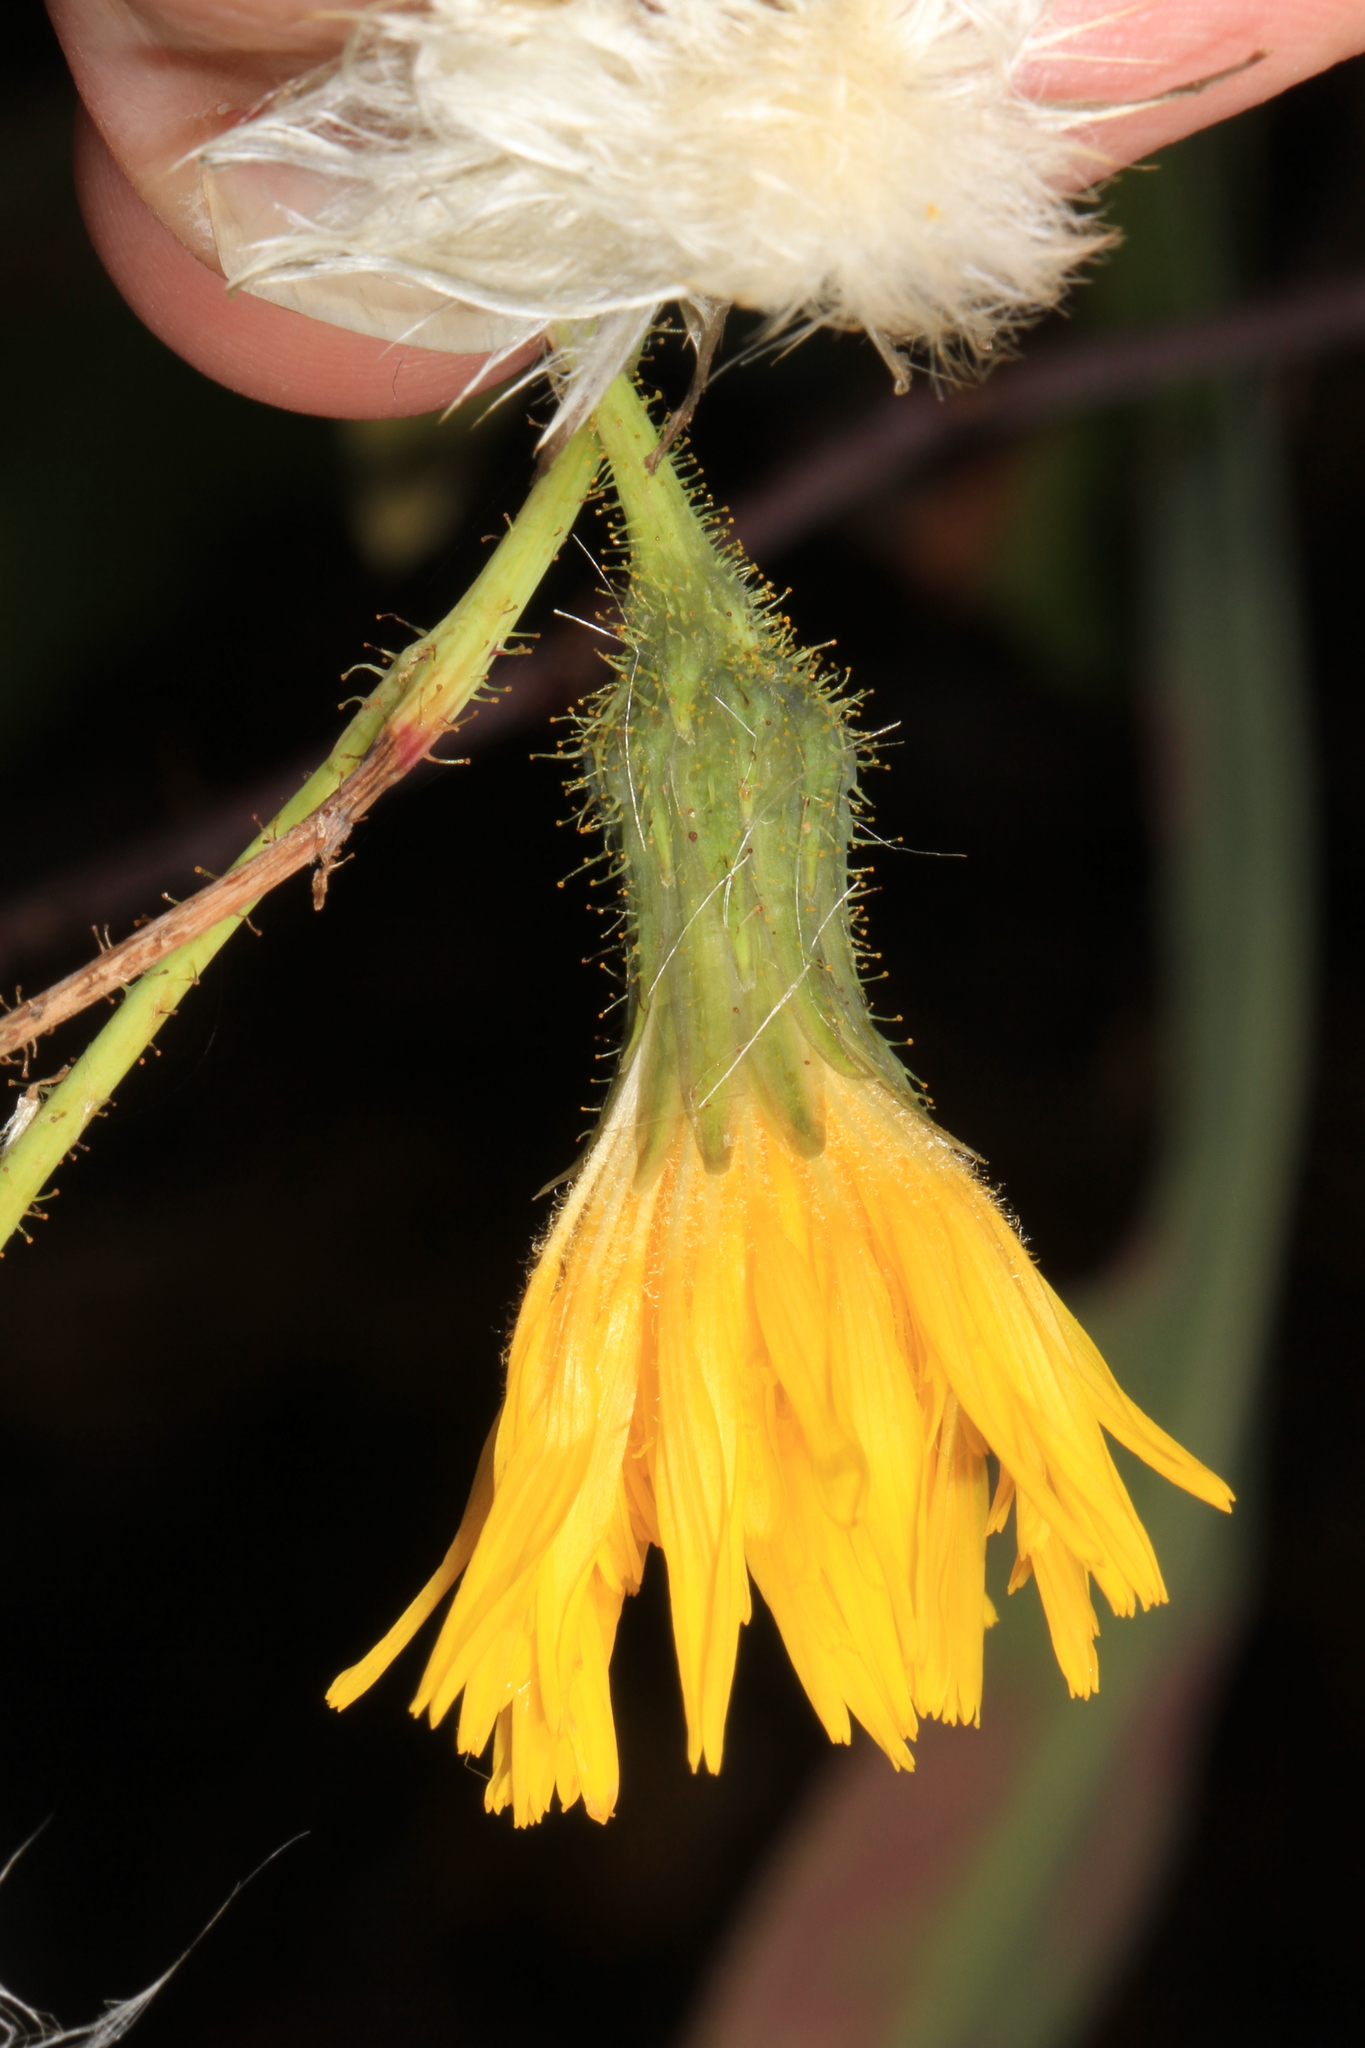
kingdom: Plantae
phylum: Tracheophyta
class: Magnoliopsida
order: Asterales
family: Asteraceae
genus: Sonchus
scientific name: Sonchus arvensis
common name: Perennial sow-thistle
